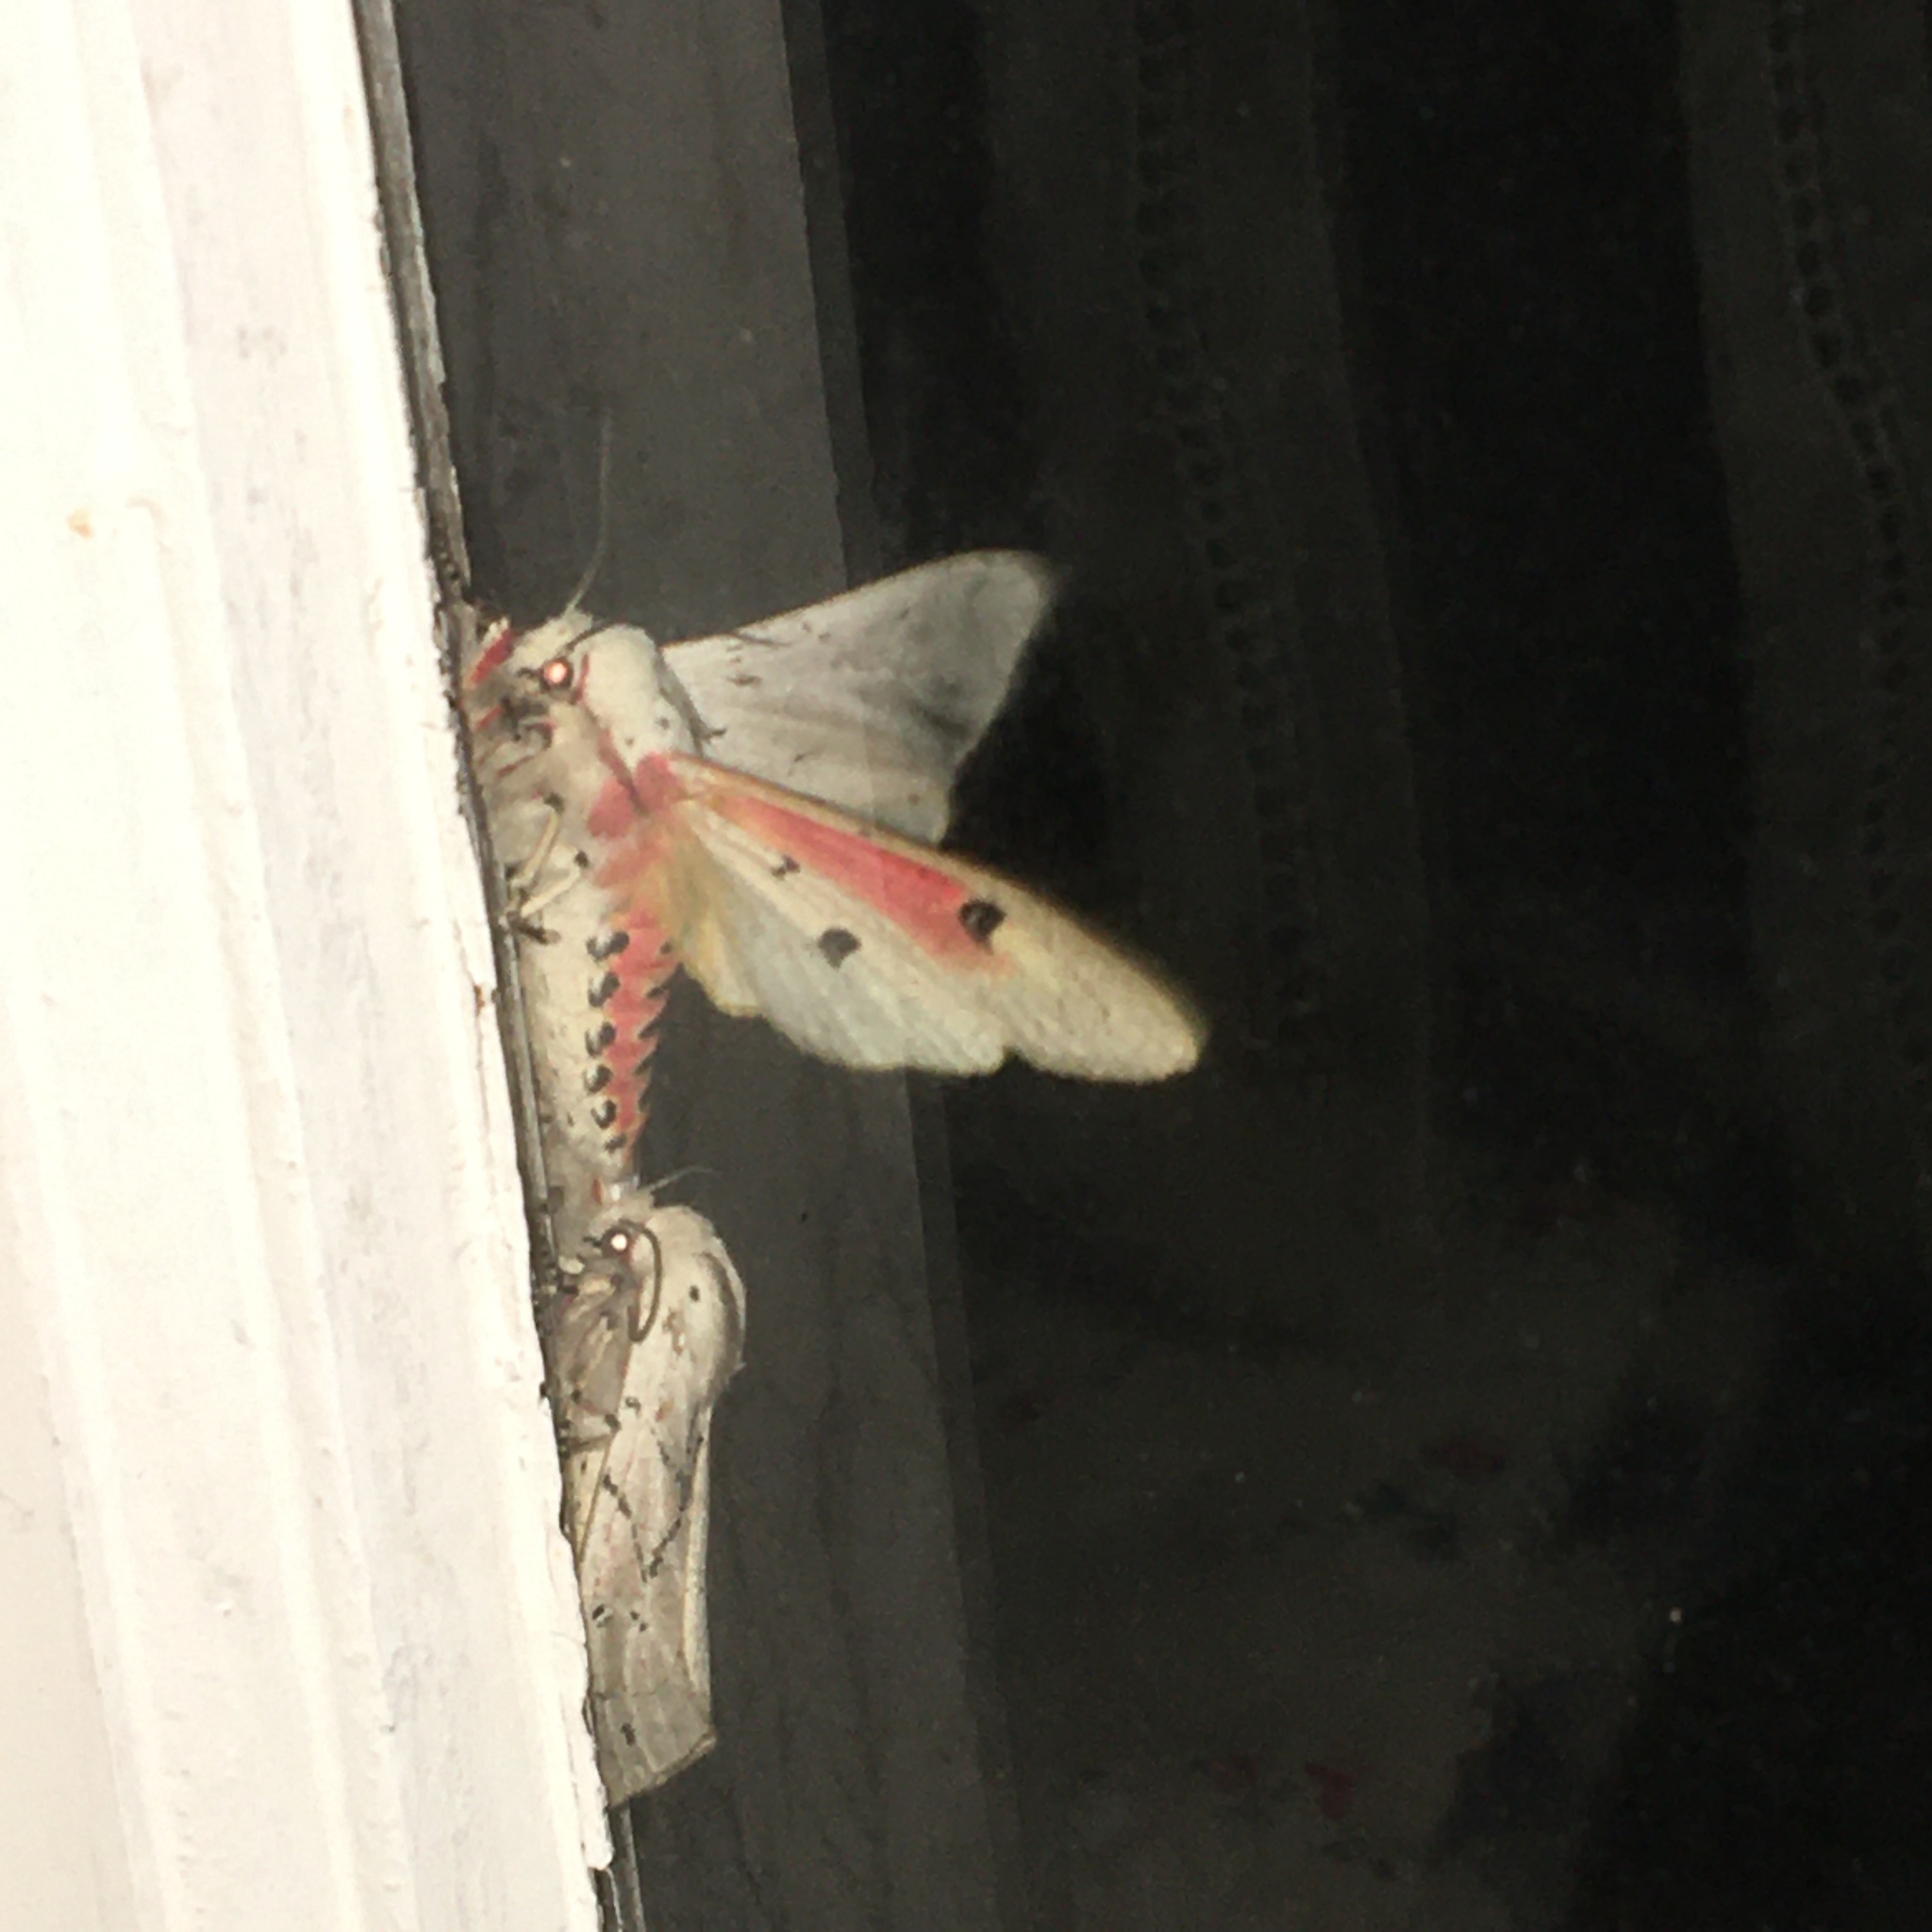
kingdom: Animalia
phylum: Arthropoda
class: Insecta
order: Lepidoptera
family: Erebidae
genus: Rhodogastria
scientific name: Rhodogastria amasis
